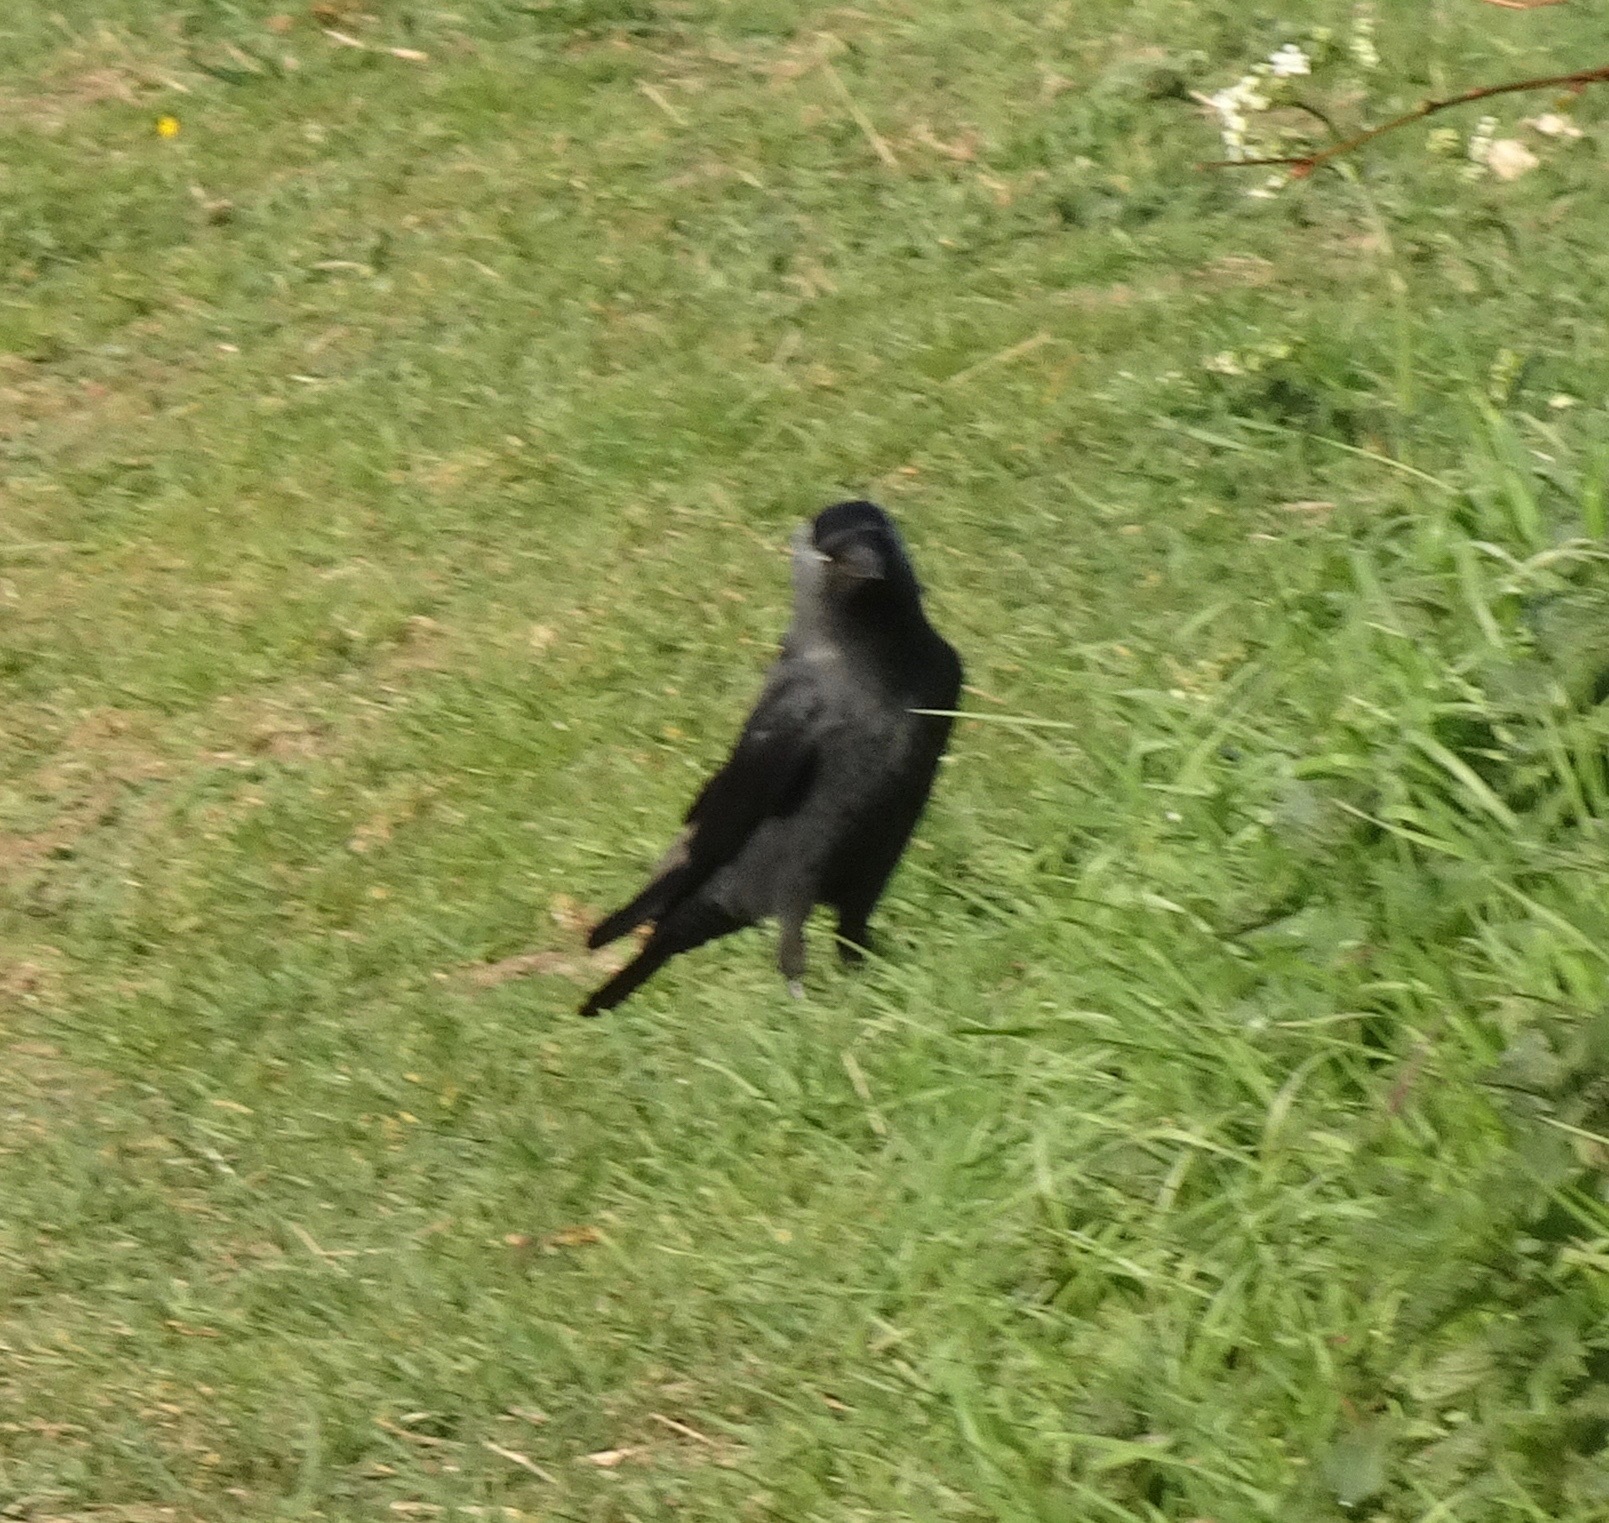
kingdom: Animalia
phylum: Chordata
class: Aves
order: Passeriformes
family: Corvidae
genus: Coloeus
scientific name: Coloeus monedula
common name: Western jackdaw
